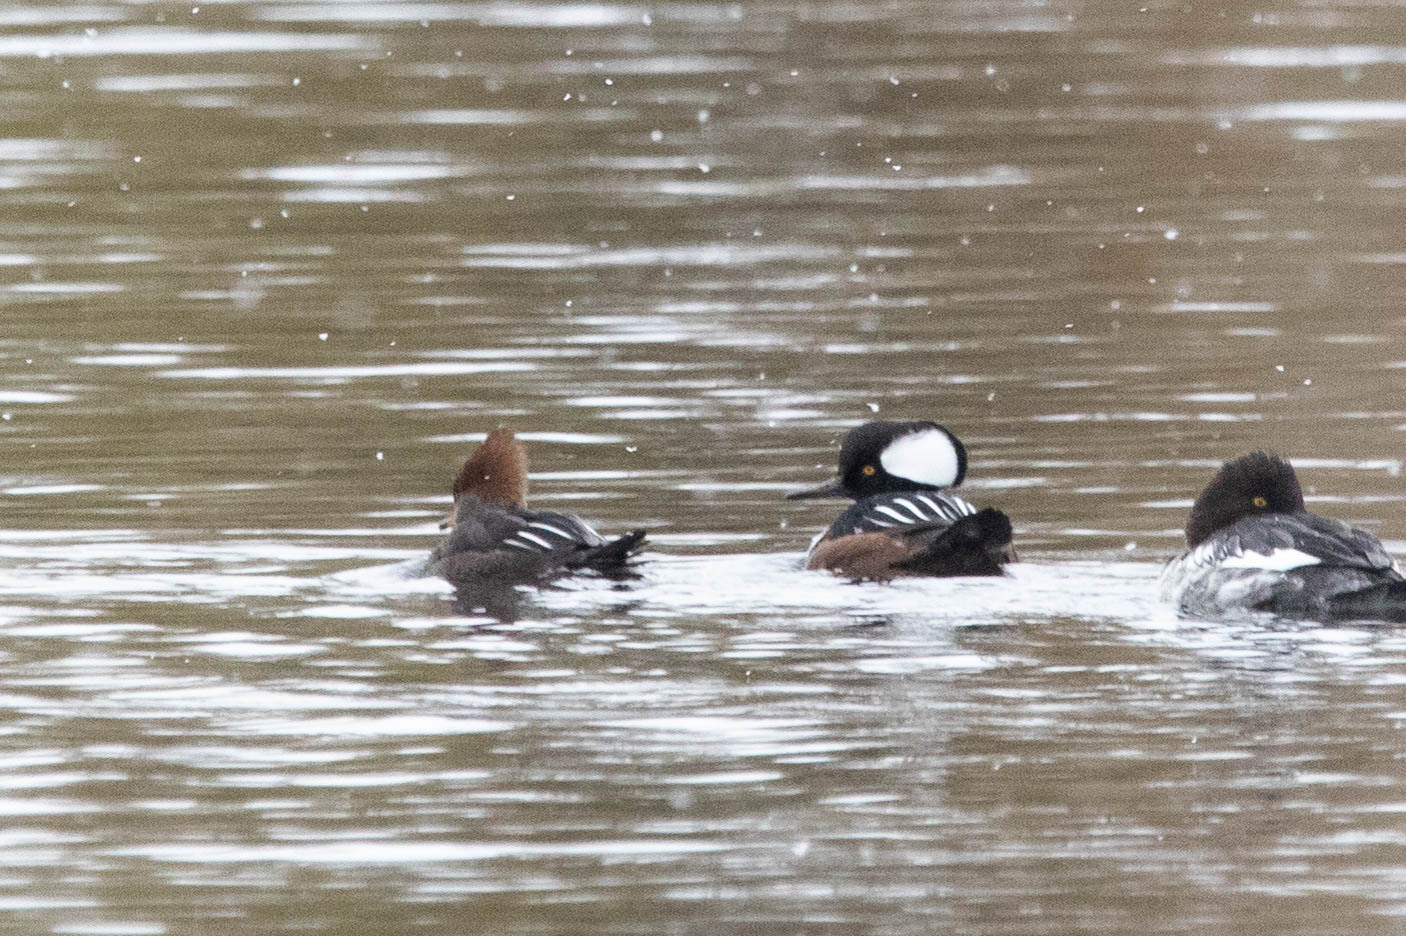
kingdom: Animalia
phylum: Chordata
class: Aves
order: Anseriformes
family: Anatidae
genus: Lophodytes
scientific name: Lophodytes cucullatus
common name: Hooded merganser
